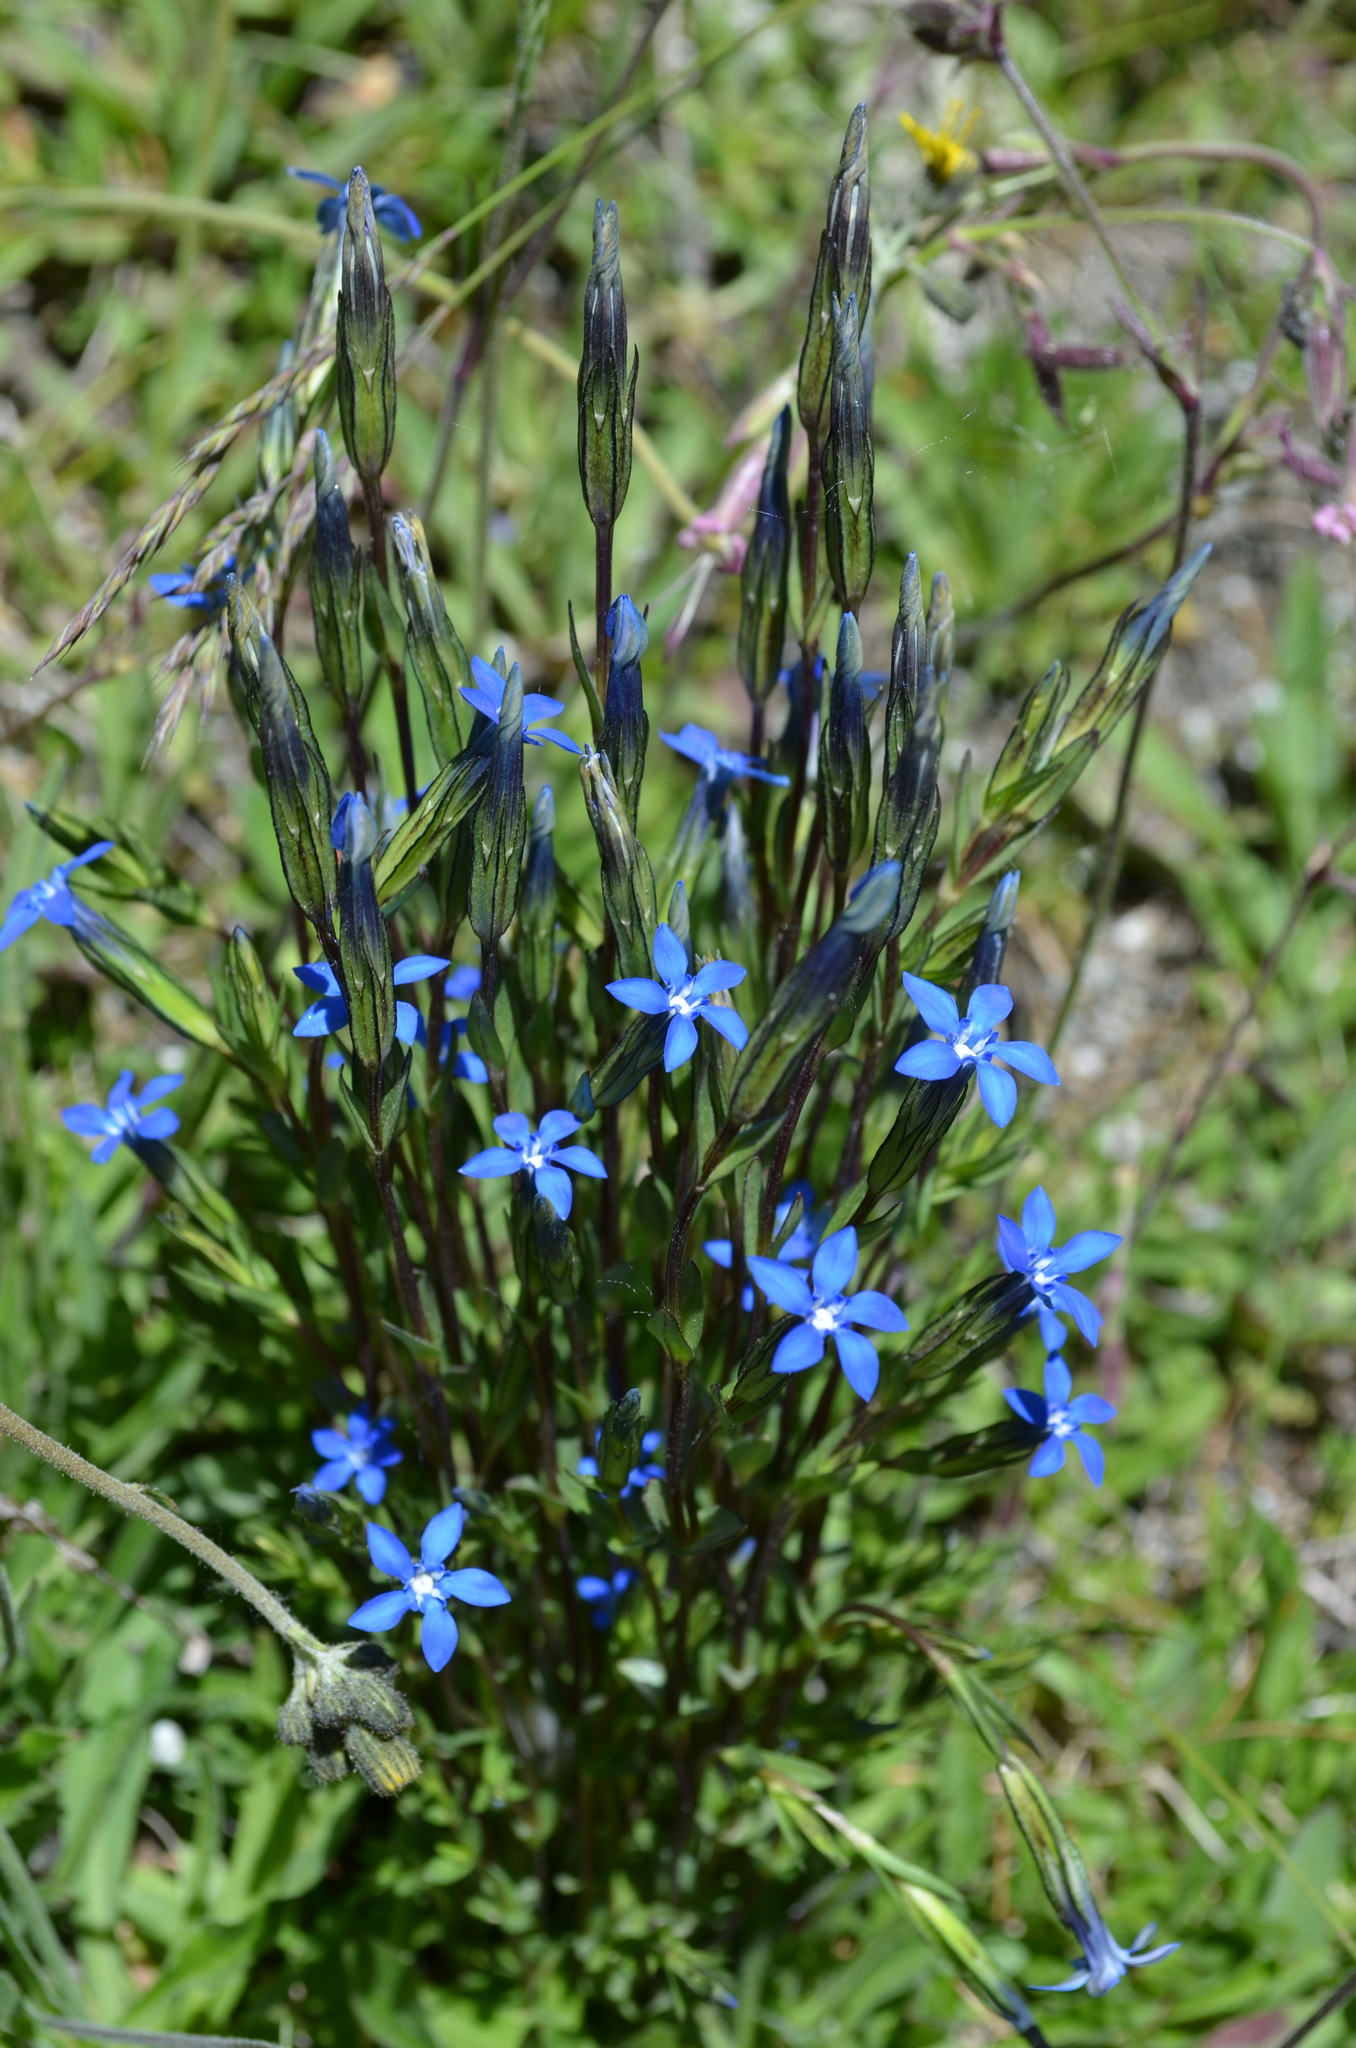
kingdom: Plantae
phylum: Tracheophyta
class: Magnoliopsida
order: Gentianales
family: Gentianaceae
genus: Gentiana
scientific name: Gentiana nivalis
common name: Alpine gentian
